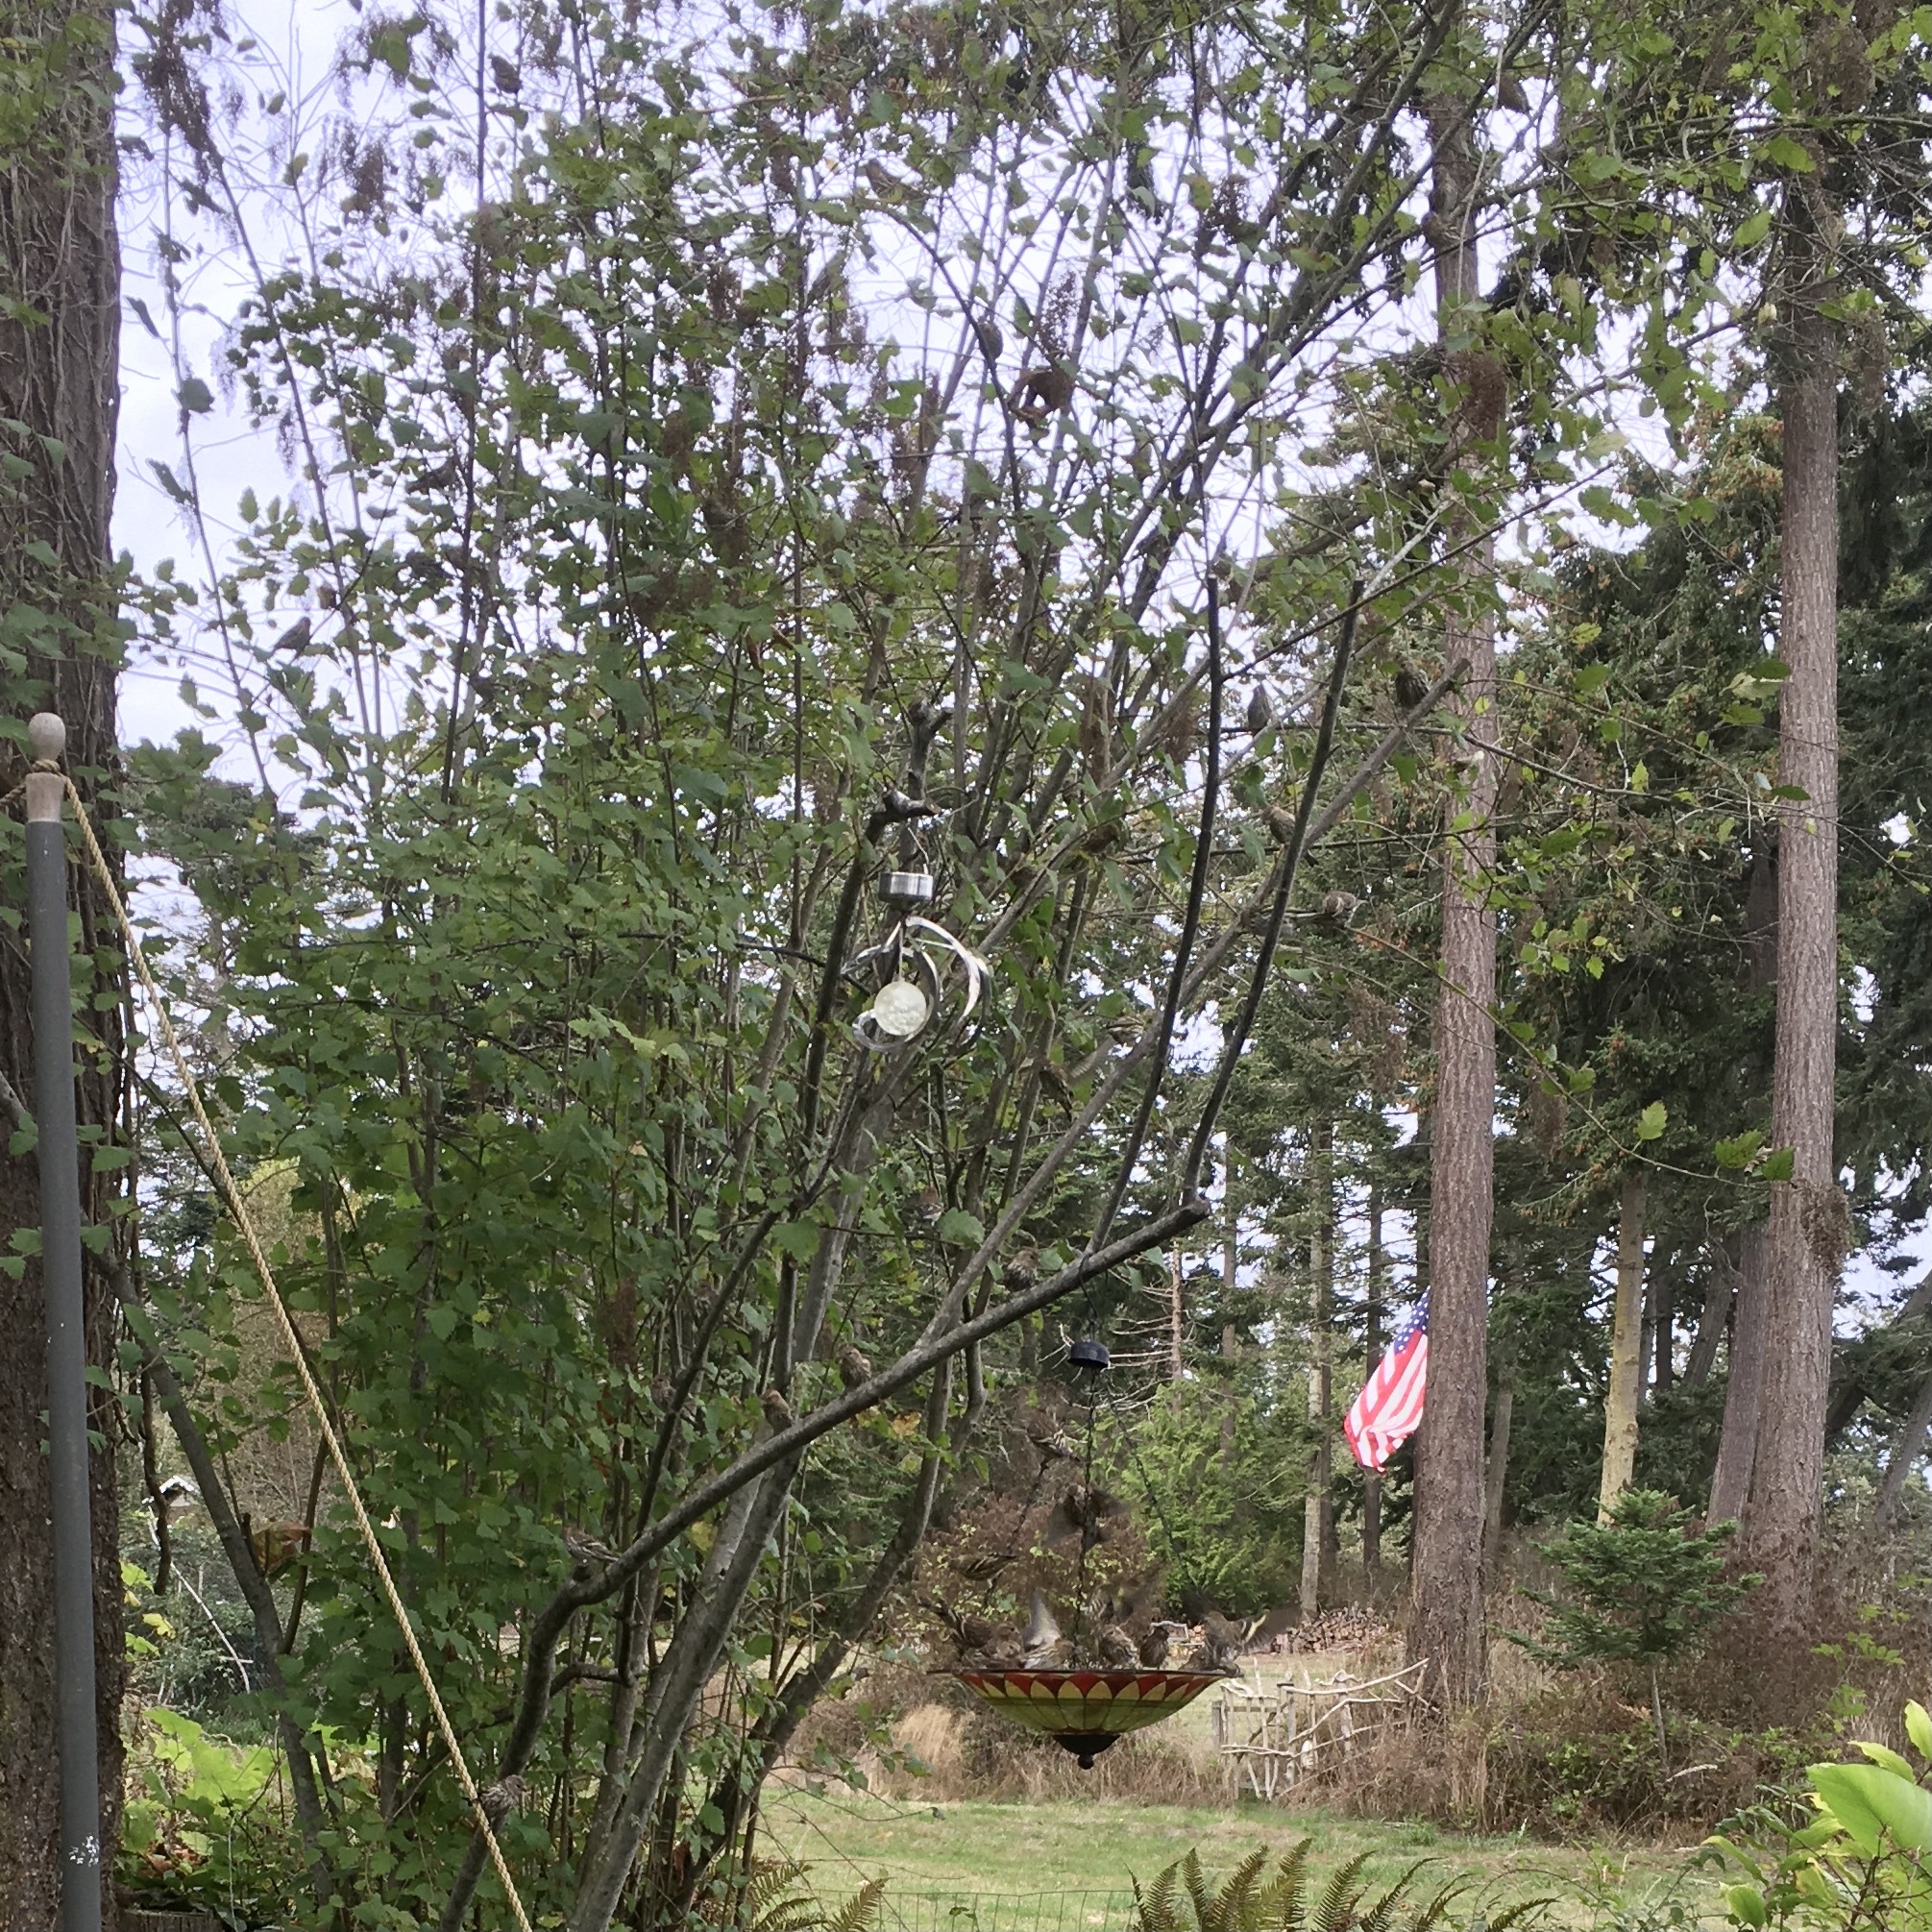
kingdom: Animalia
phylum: Chordata
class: Aves
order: Passeriformes
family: Fringillidae
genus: Spinus
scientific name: Spinus pinus
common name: Pine siskin
